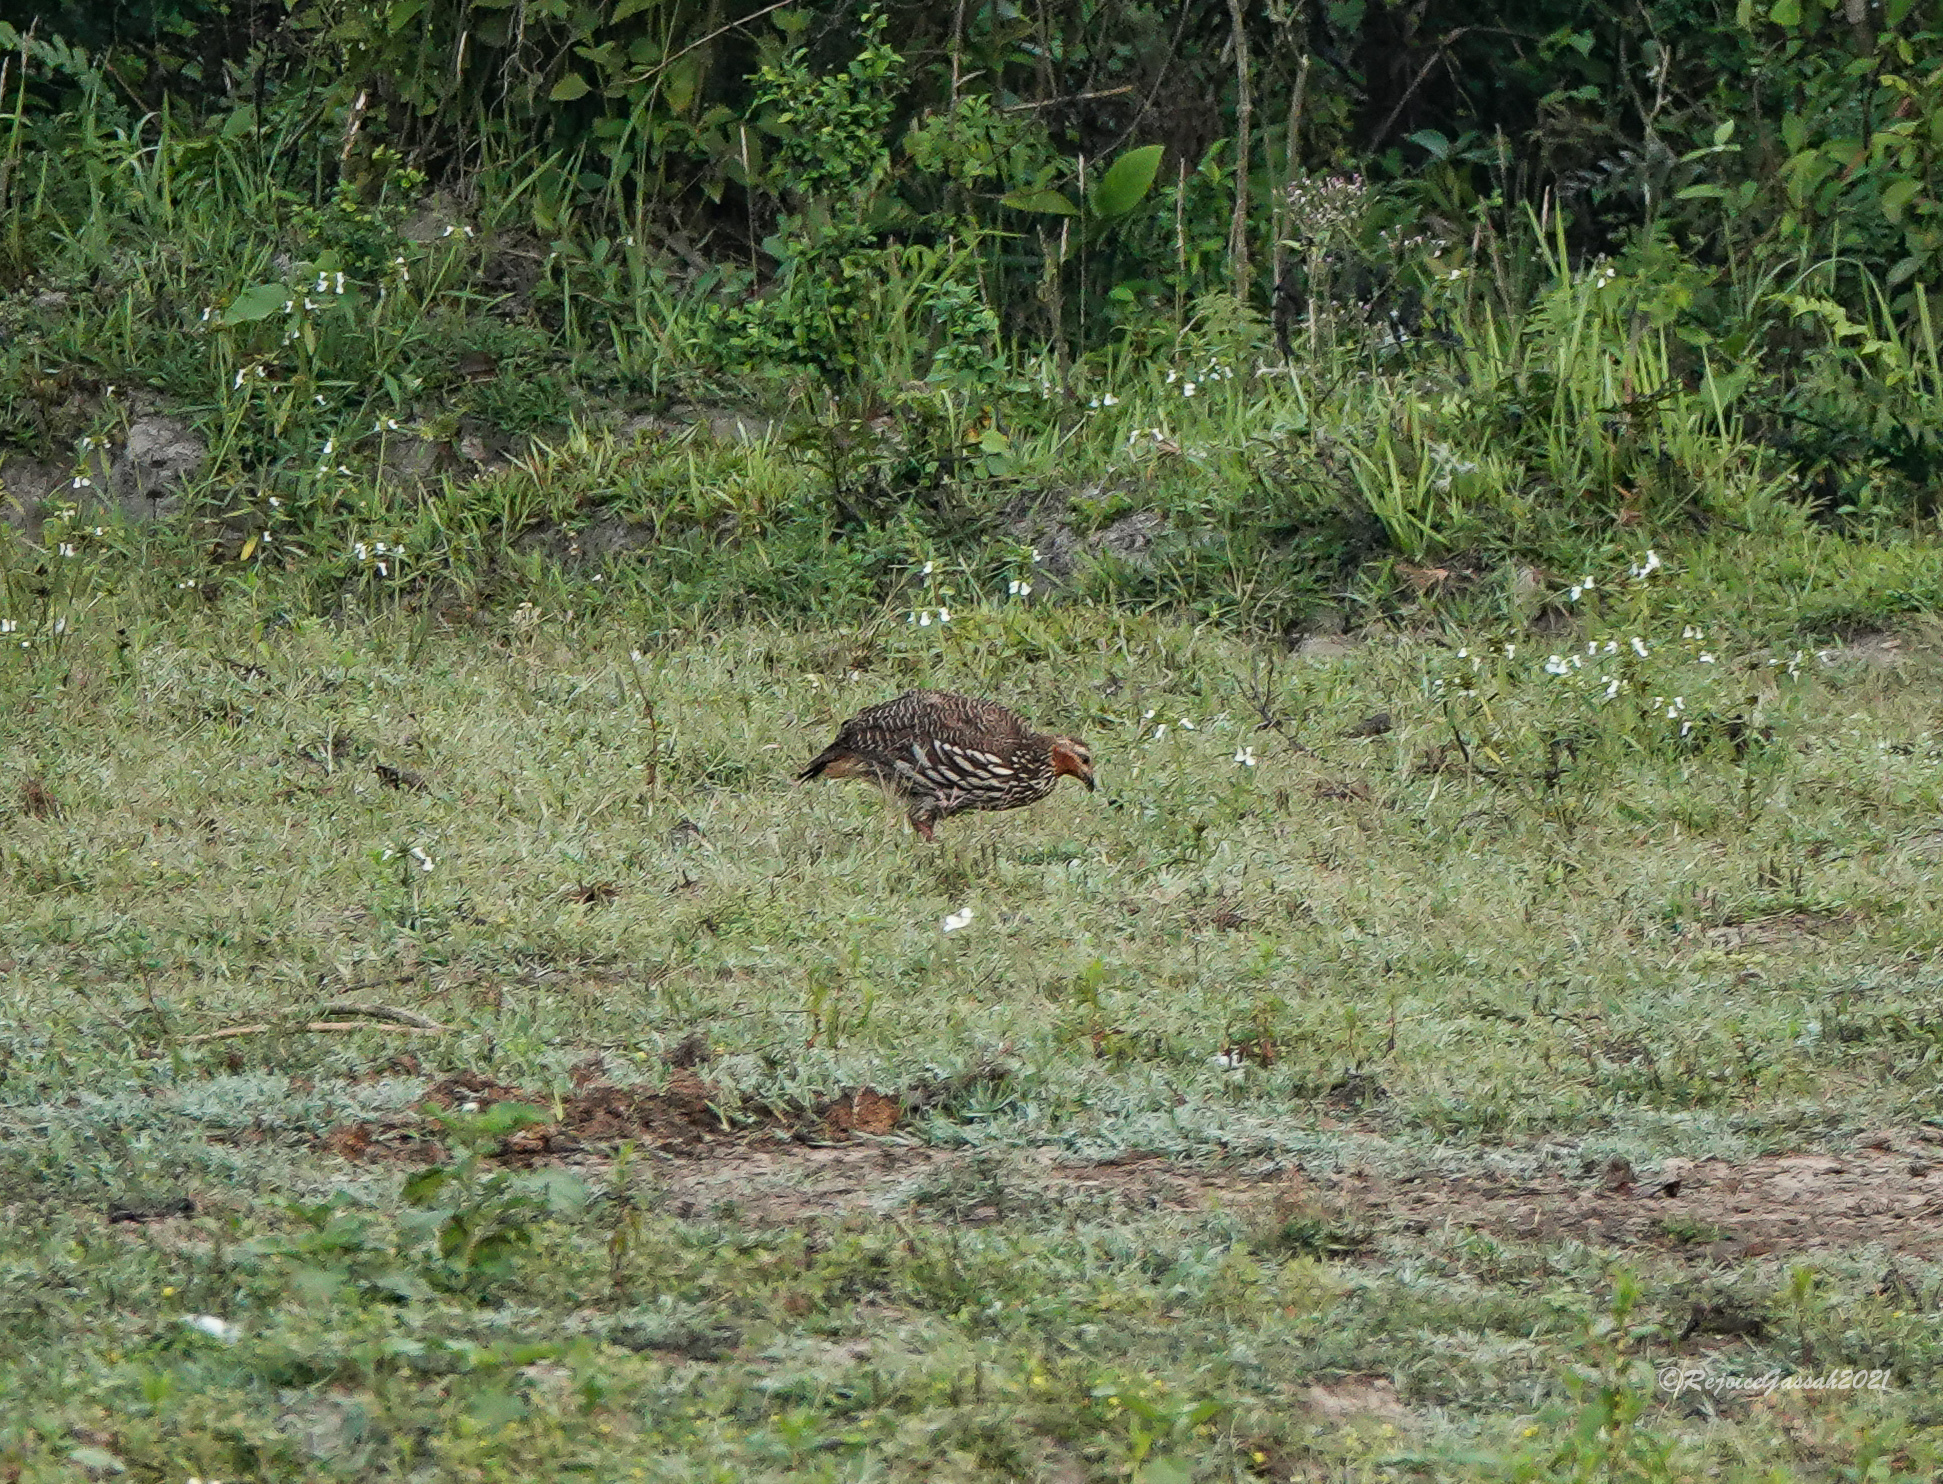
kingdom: Animalia
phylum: Chordata
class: Aves
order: Galliformes
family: Phasianidae
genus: Ortygornis
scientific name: Ortygornis gularis
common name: Swamp francolin
